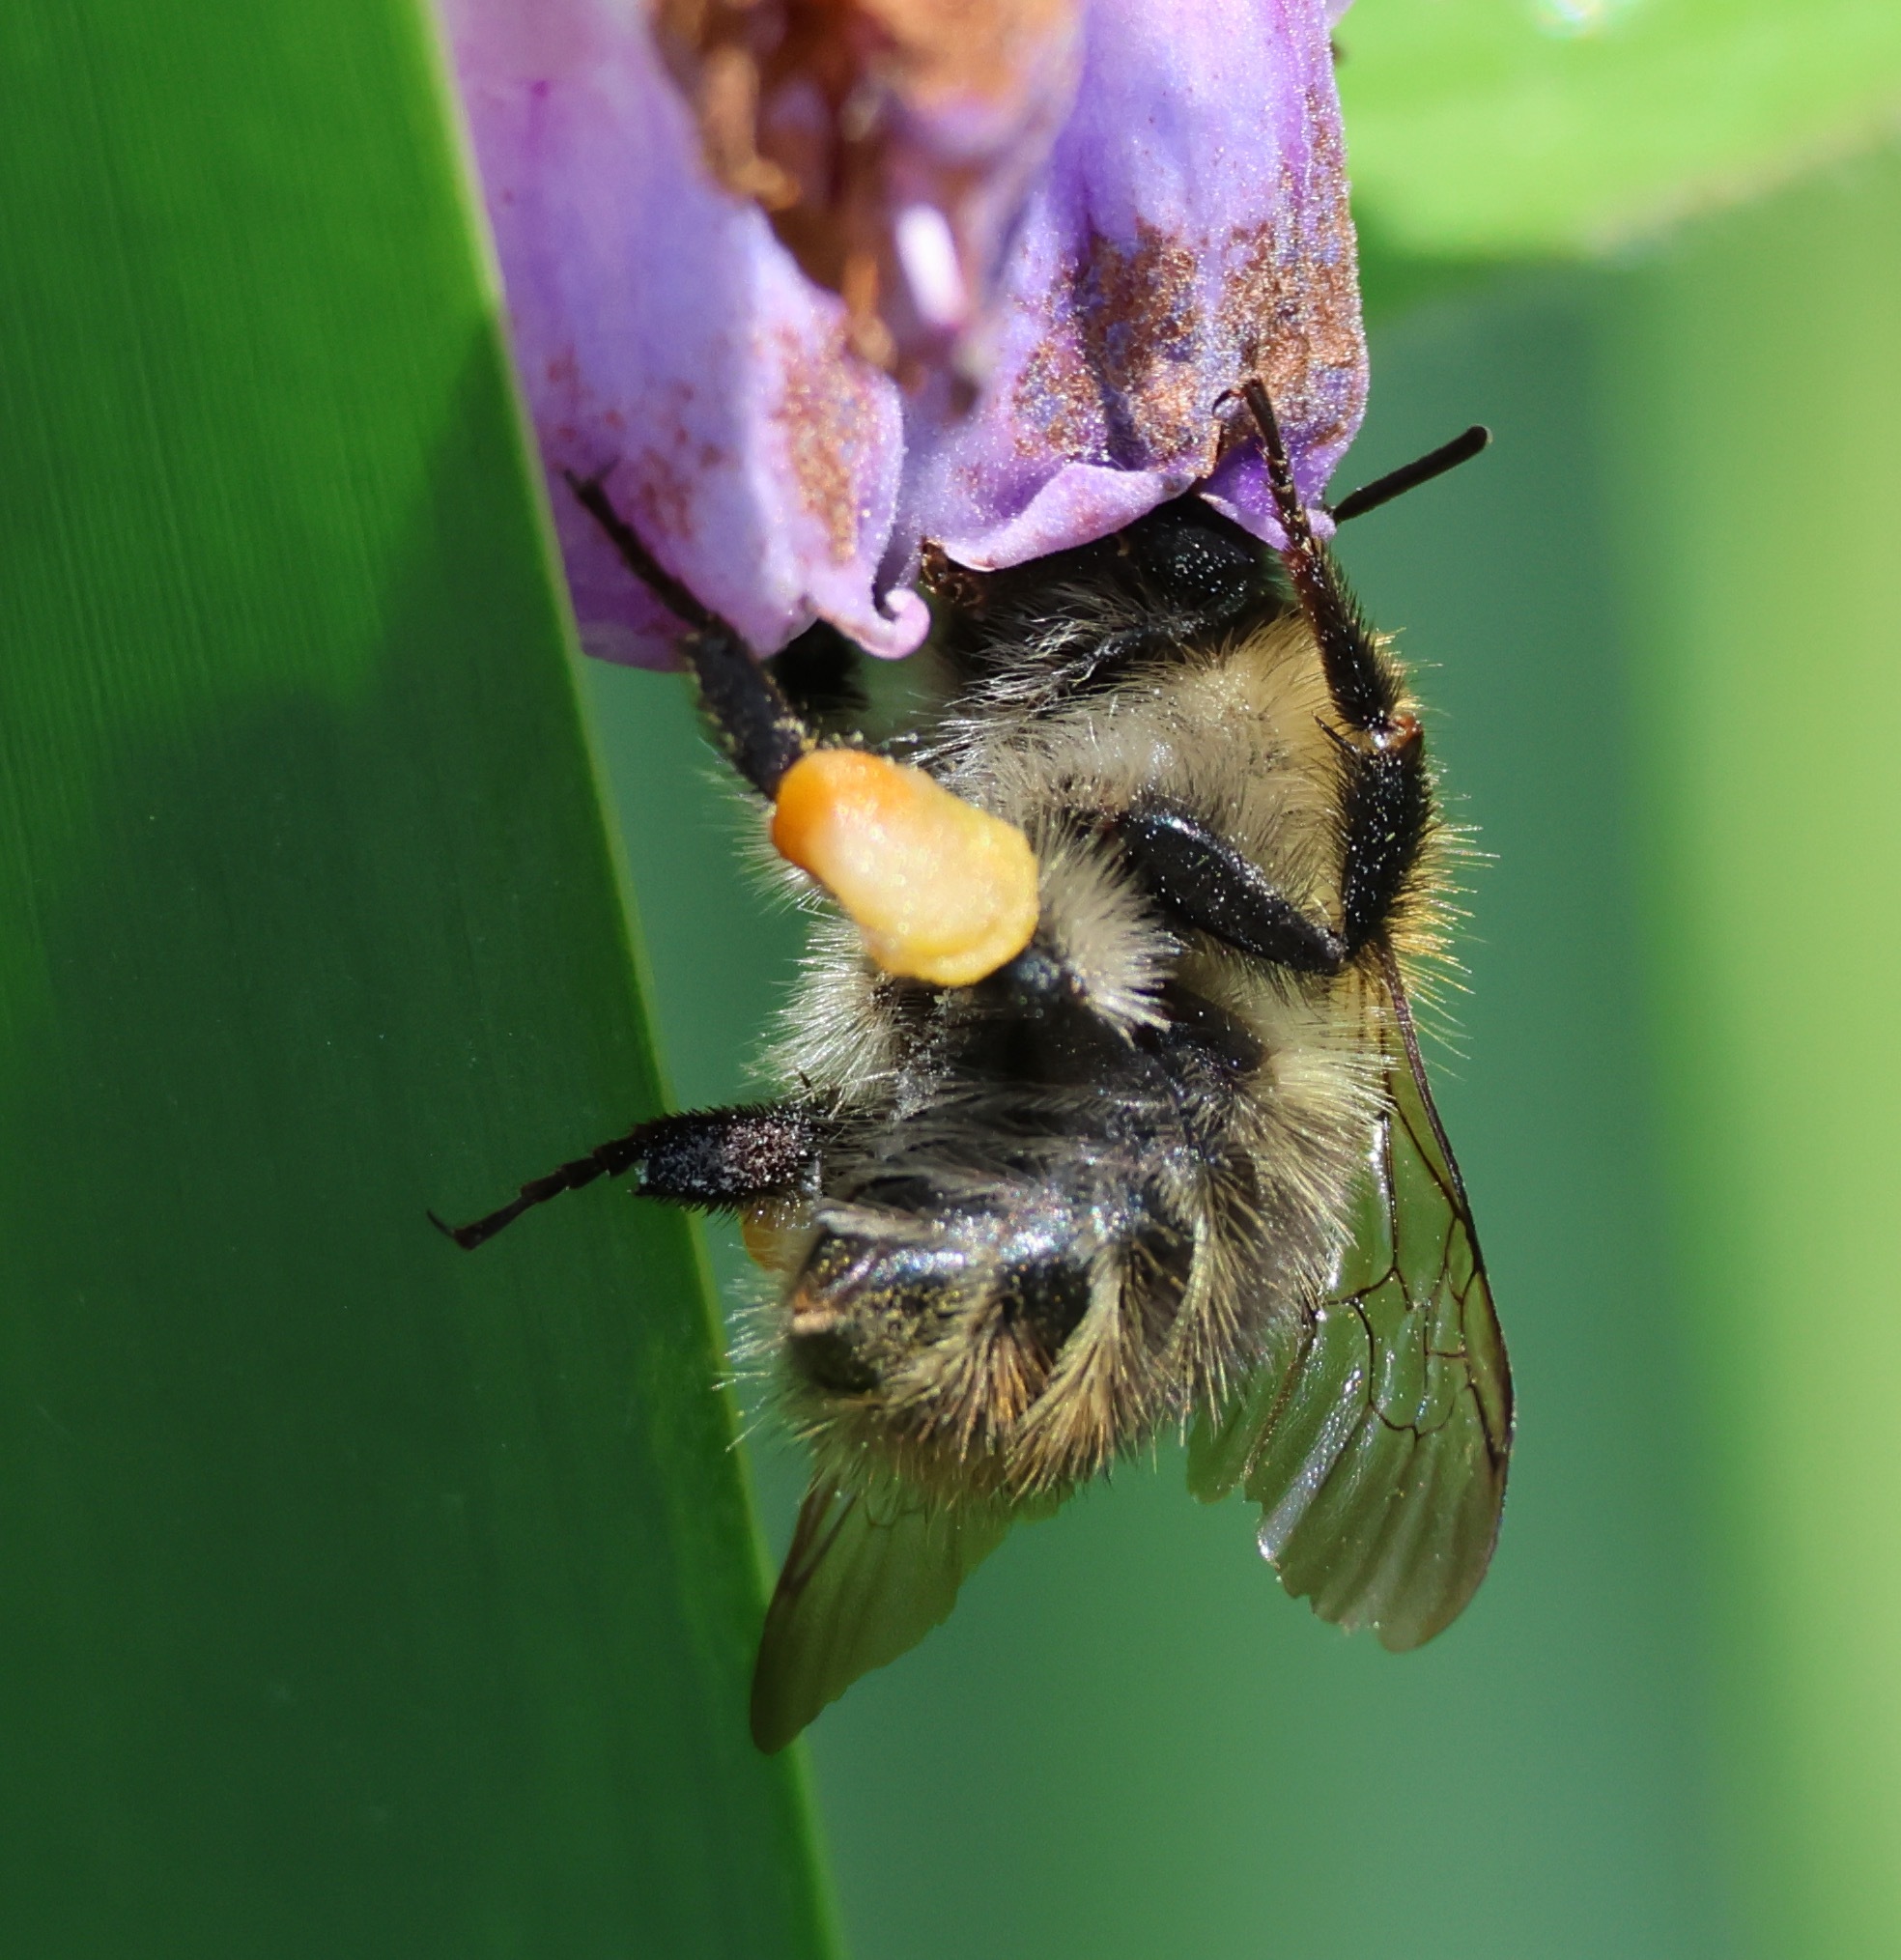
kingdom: Animalia
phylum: Arthropoda
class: Insecta
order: Hymenoptera
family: Apidae
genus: Bombus
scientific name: Bombus pascuorum
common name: Common carder bee
